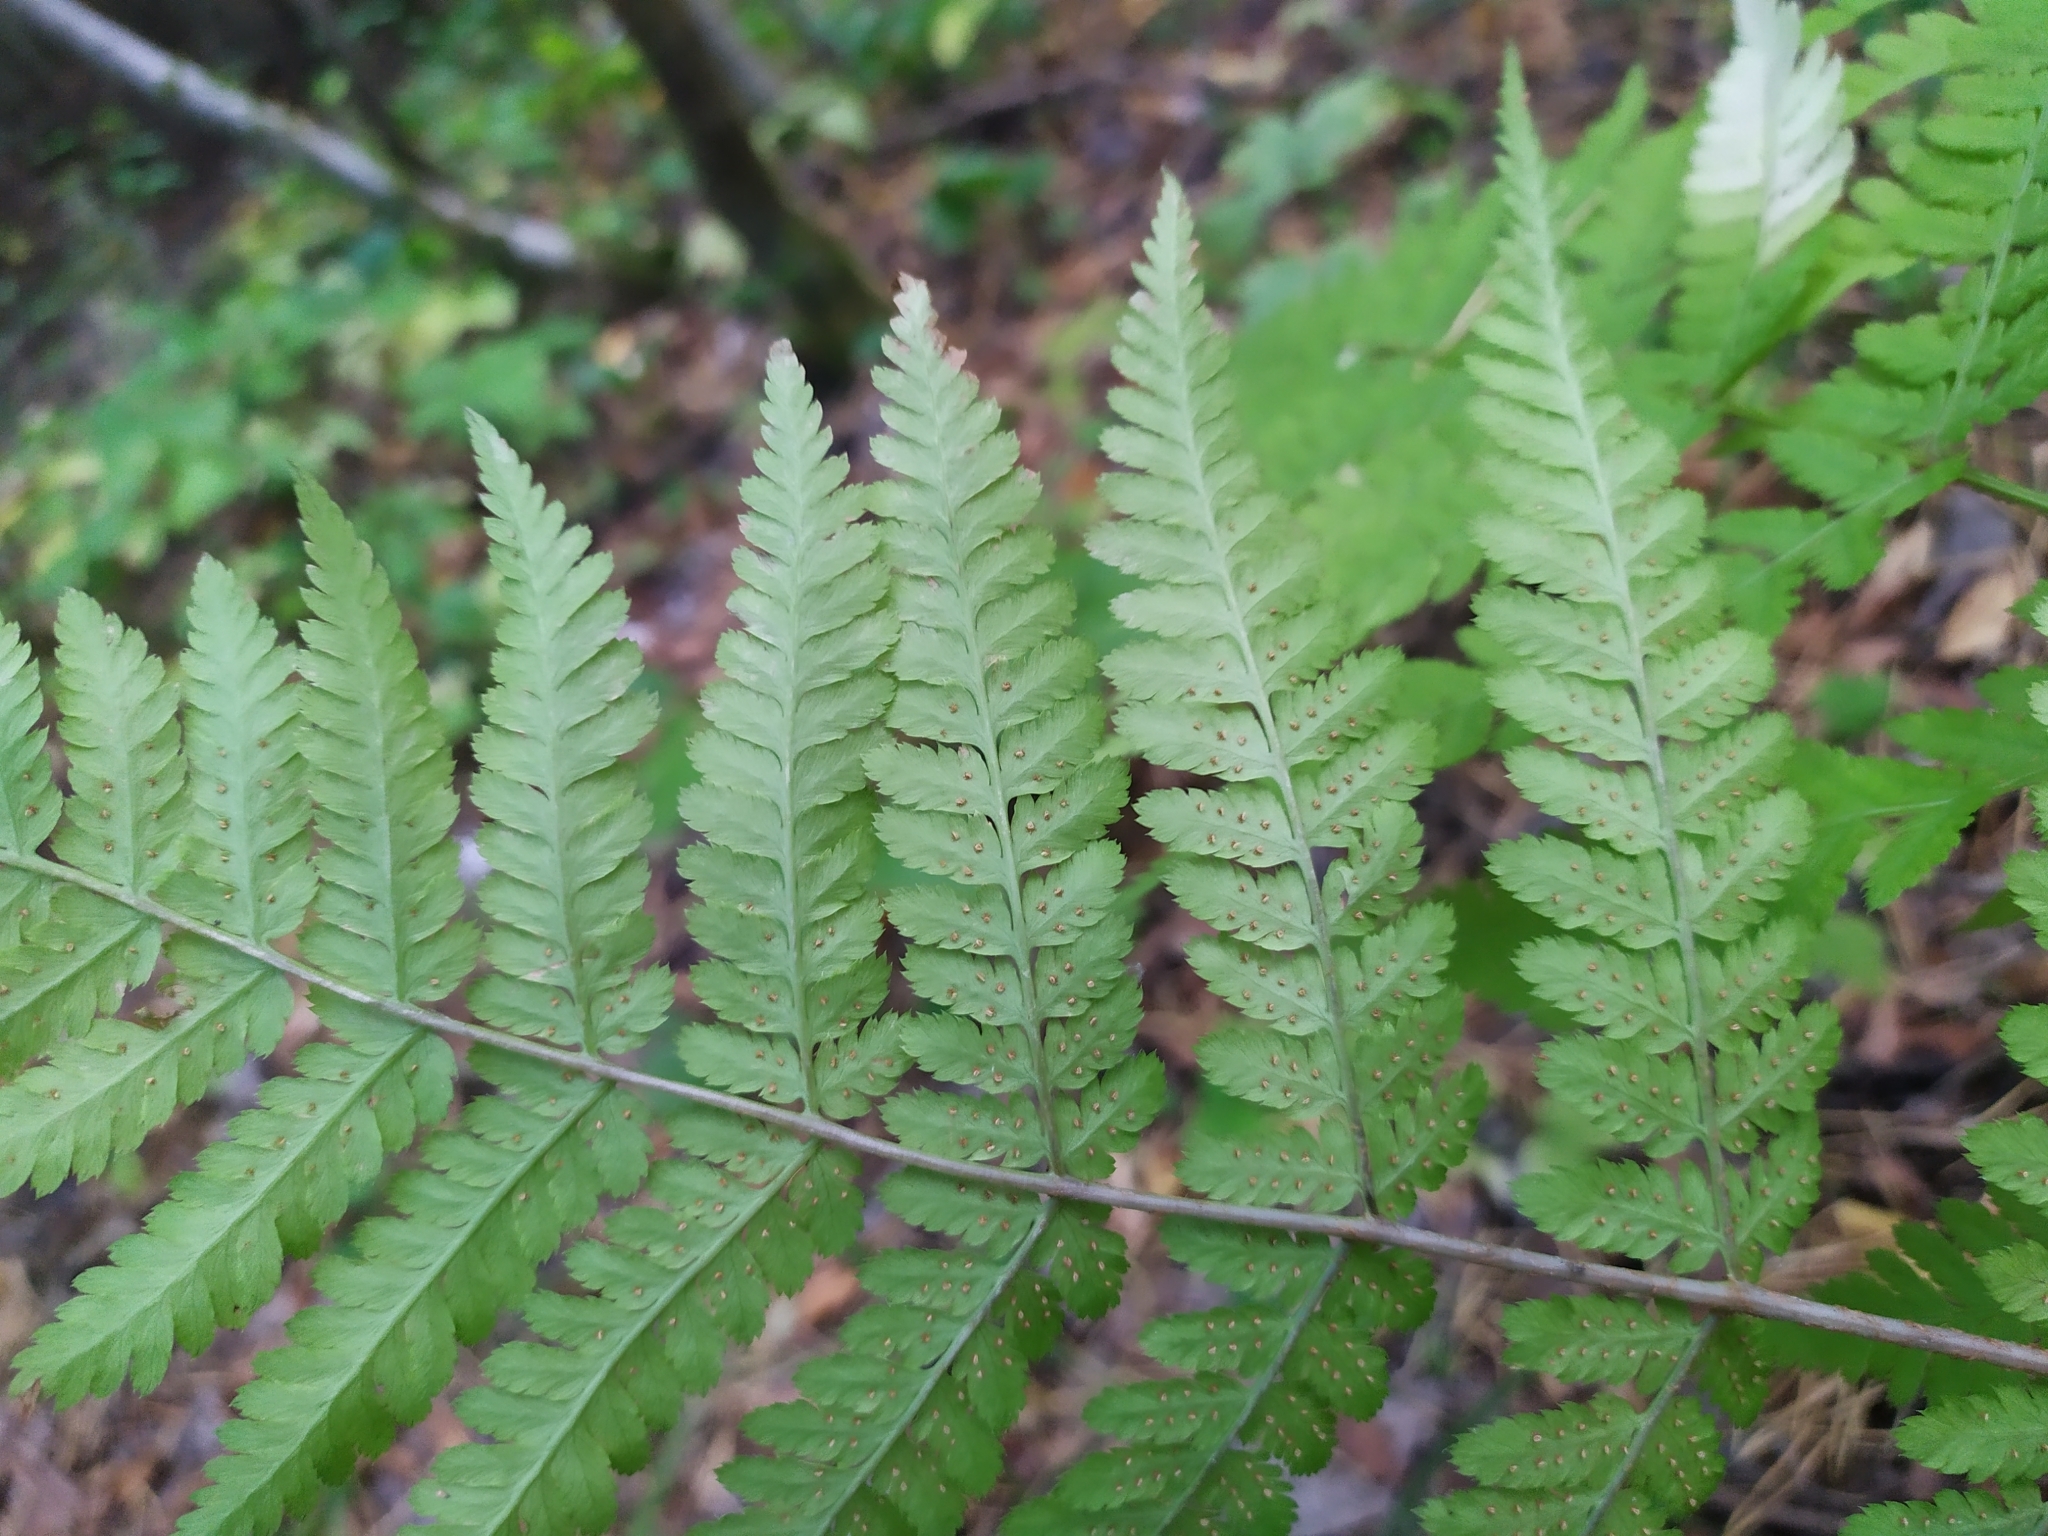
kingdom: Plantae
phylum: Tracheophyta
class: Polypodiopsida
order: Polypodiales
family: Dryopteridaceae
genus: Dryopteris
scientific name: Dryopteris carthusiana
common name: Narrow buckler-fern
